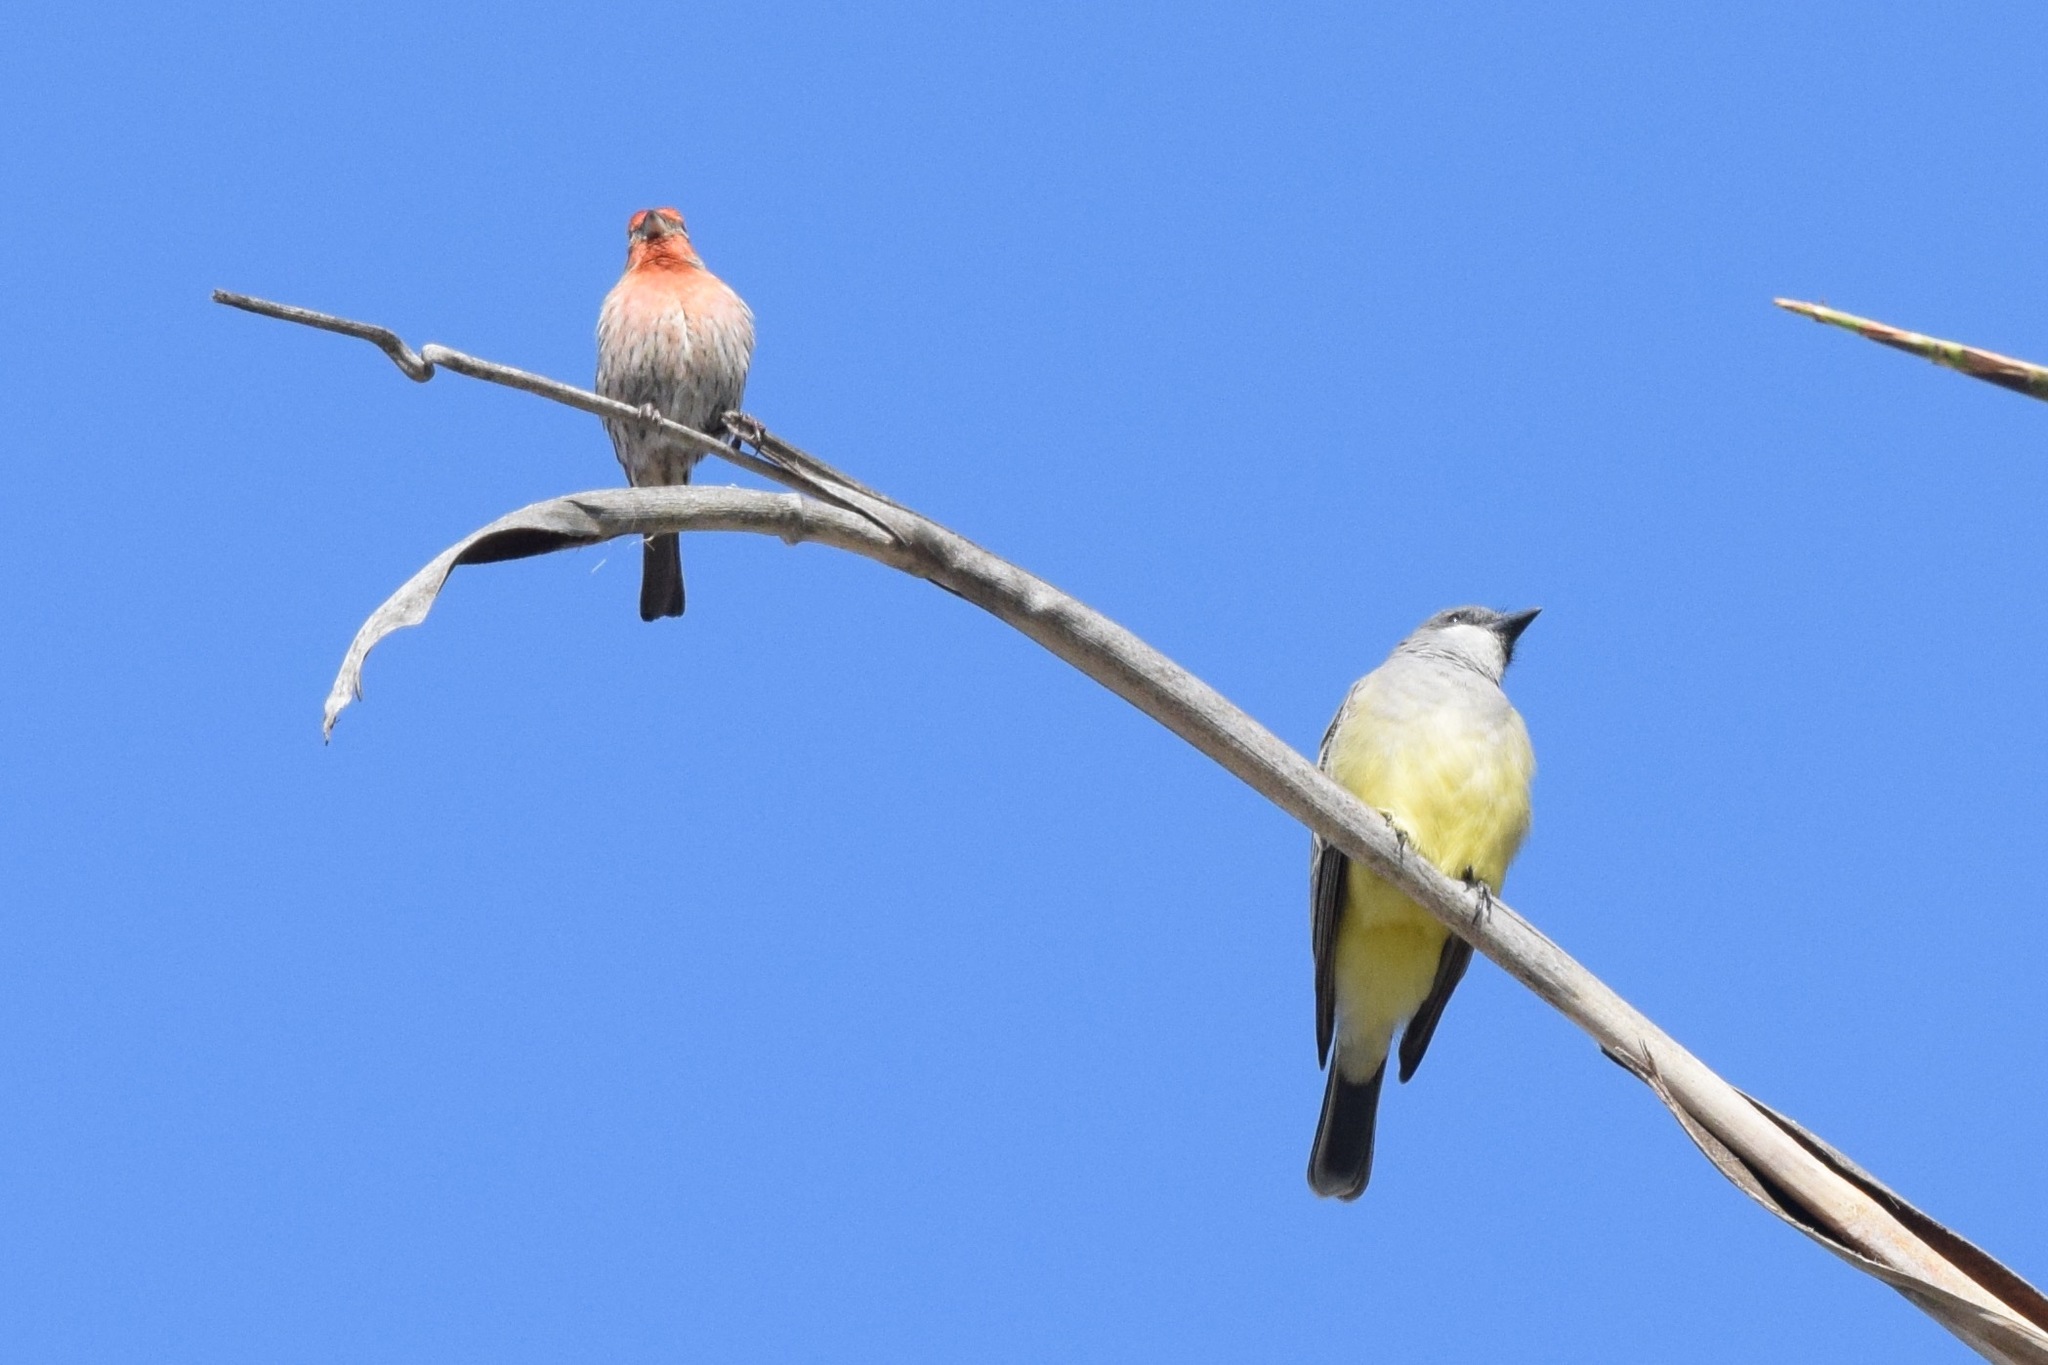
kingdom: Animalia
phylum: Chordata
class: Aves
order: Passeriformes
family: Tyrannidae
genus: Tyrannus
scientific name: Tyrannus vociferans
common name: Cassin's kingbird
